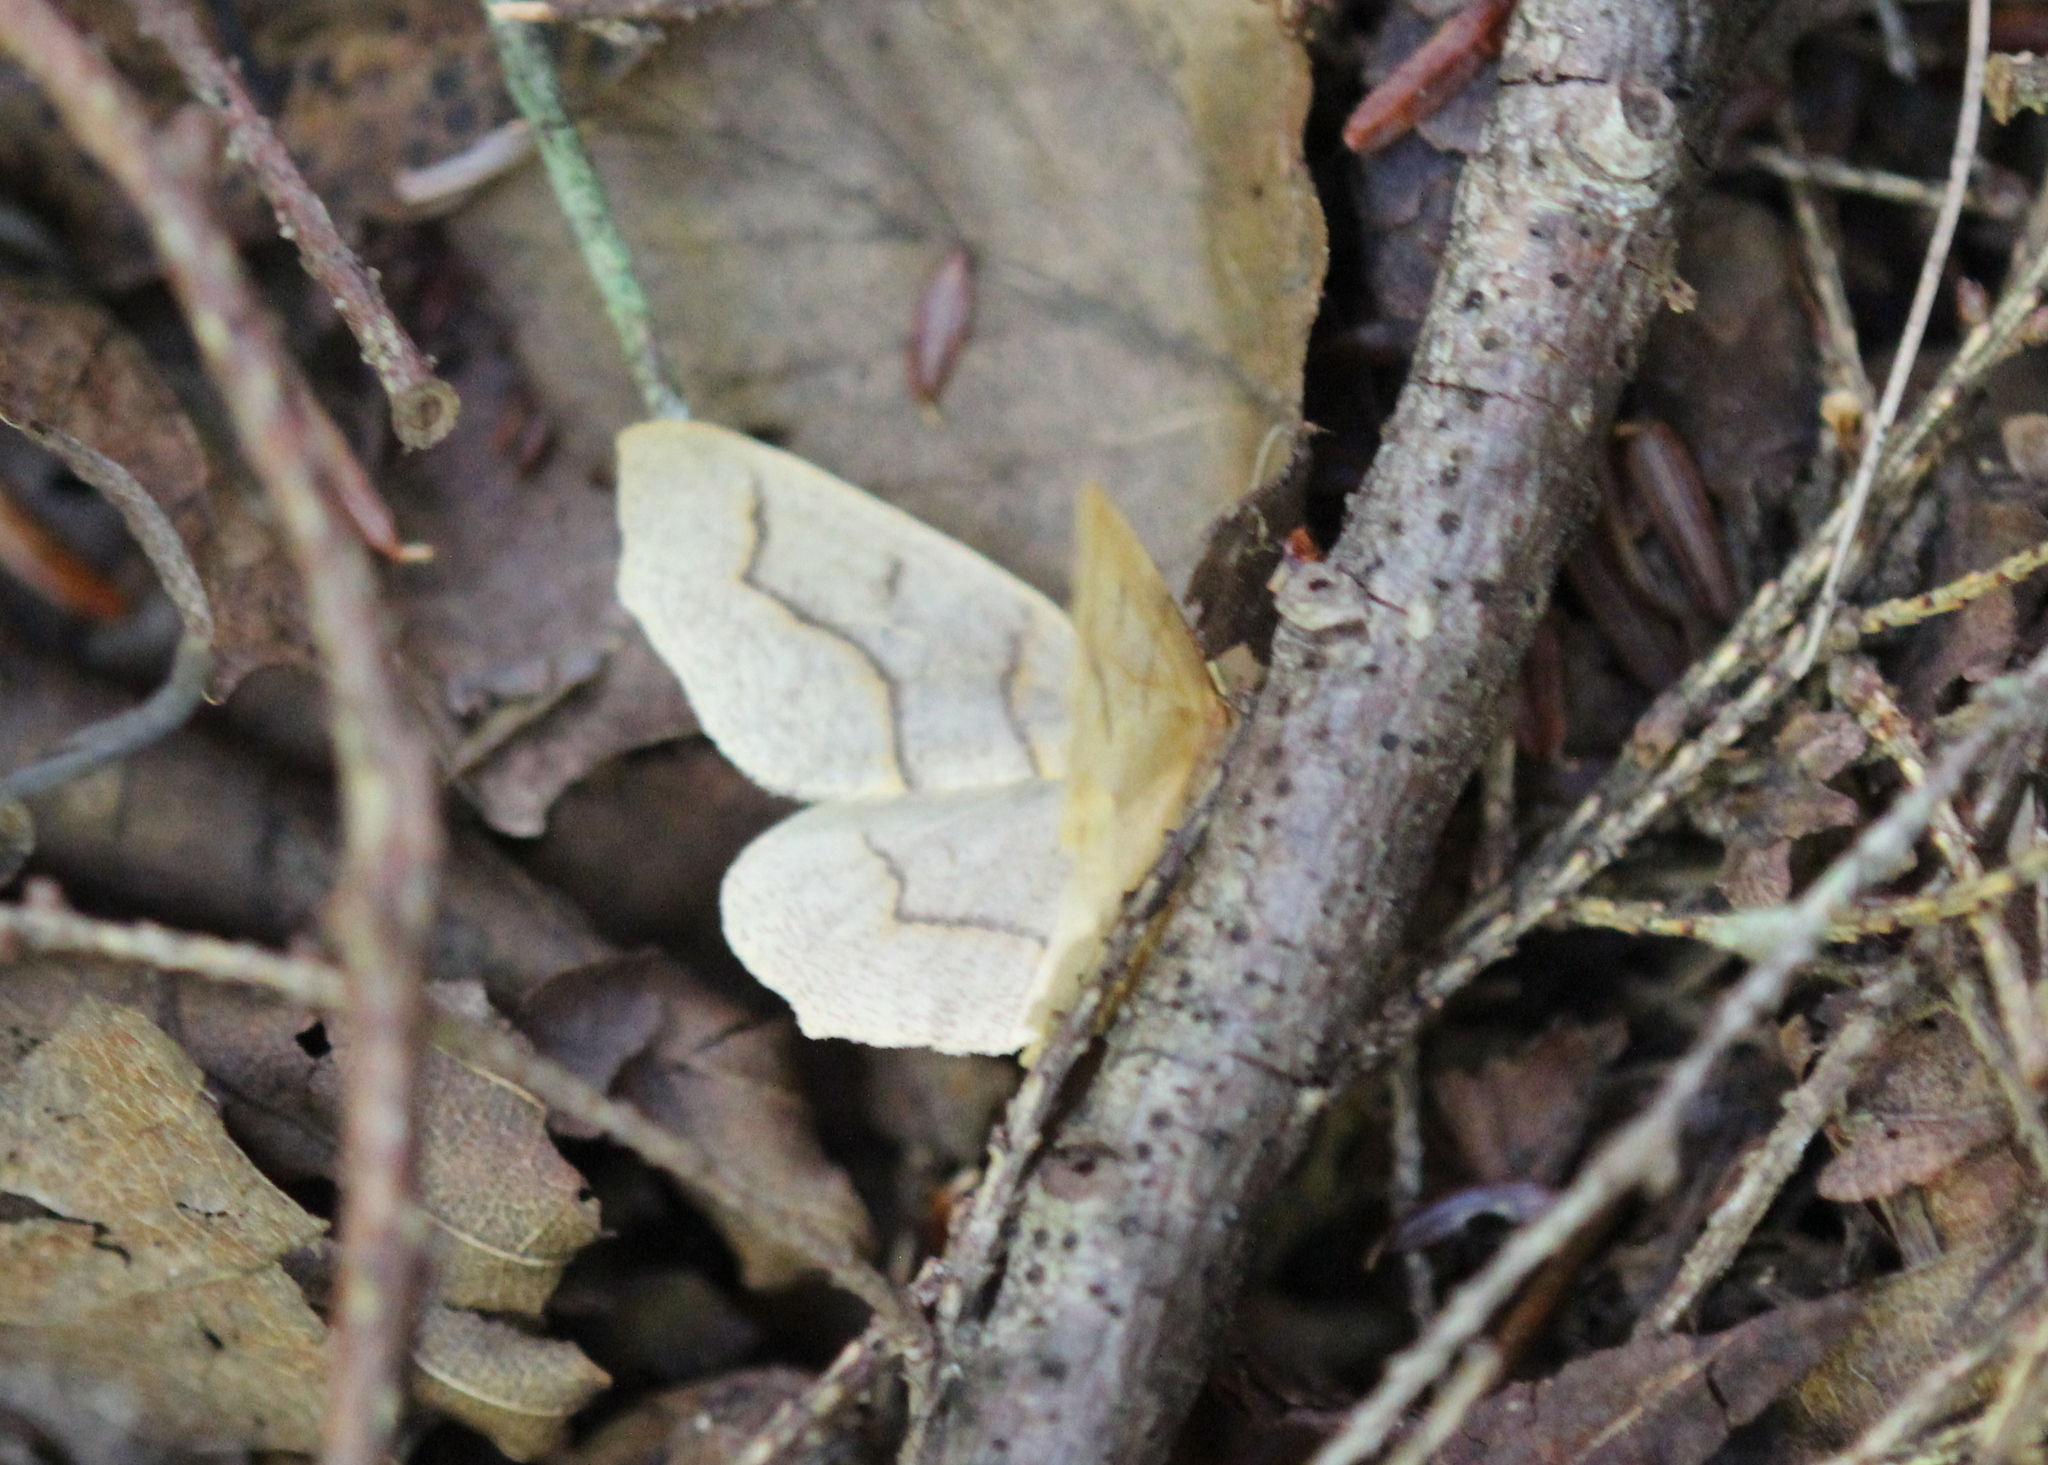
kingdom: Animalia
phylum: Arthropoda
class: Insecta
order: Lepidoptera
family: Geometridae
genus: Lambdina
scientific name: Lambdina fiscellaria
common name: Hemlock looper
